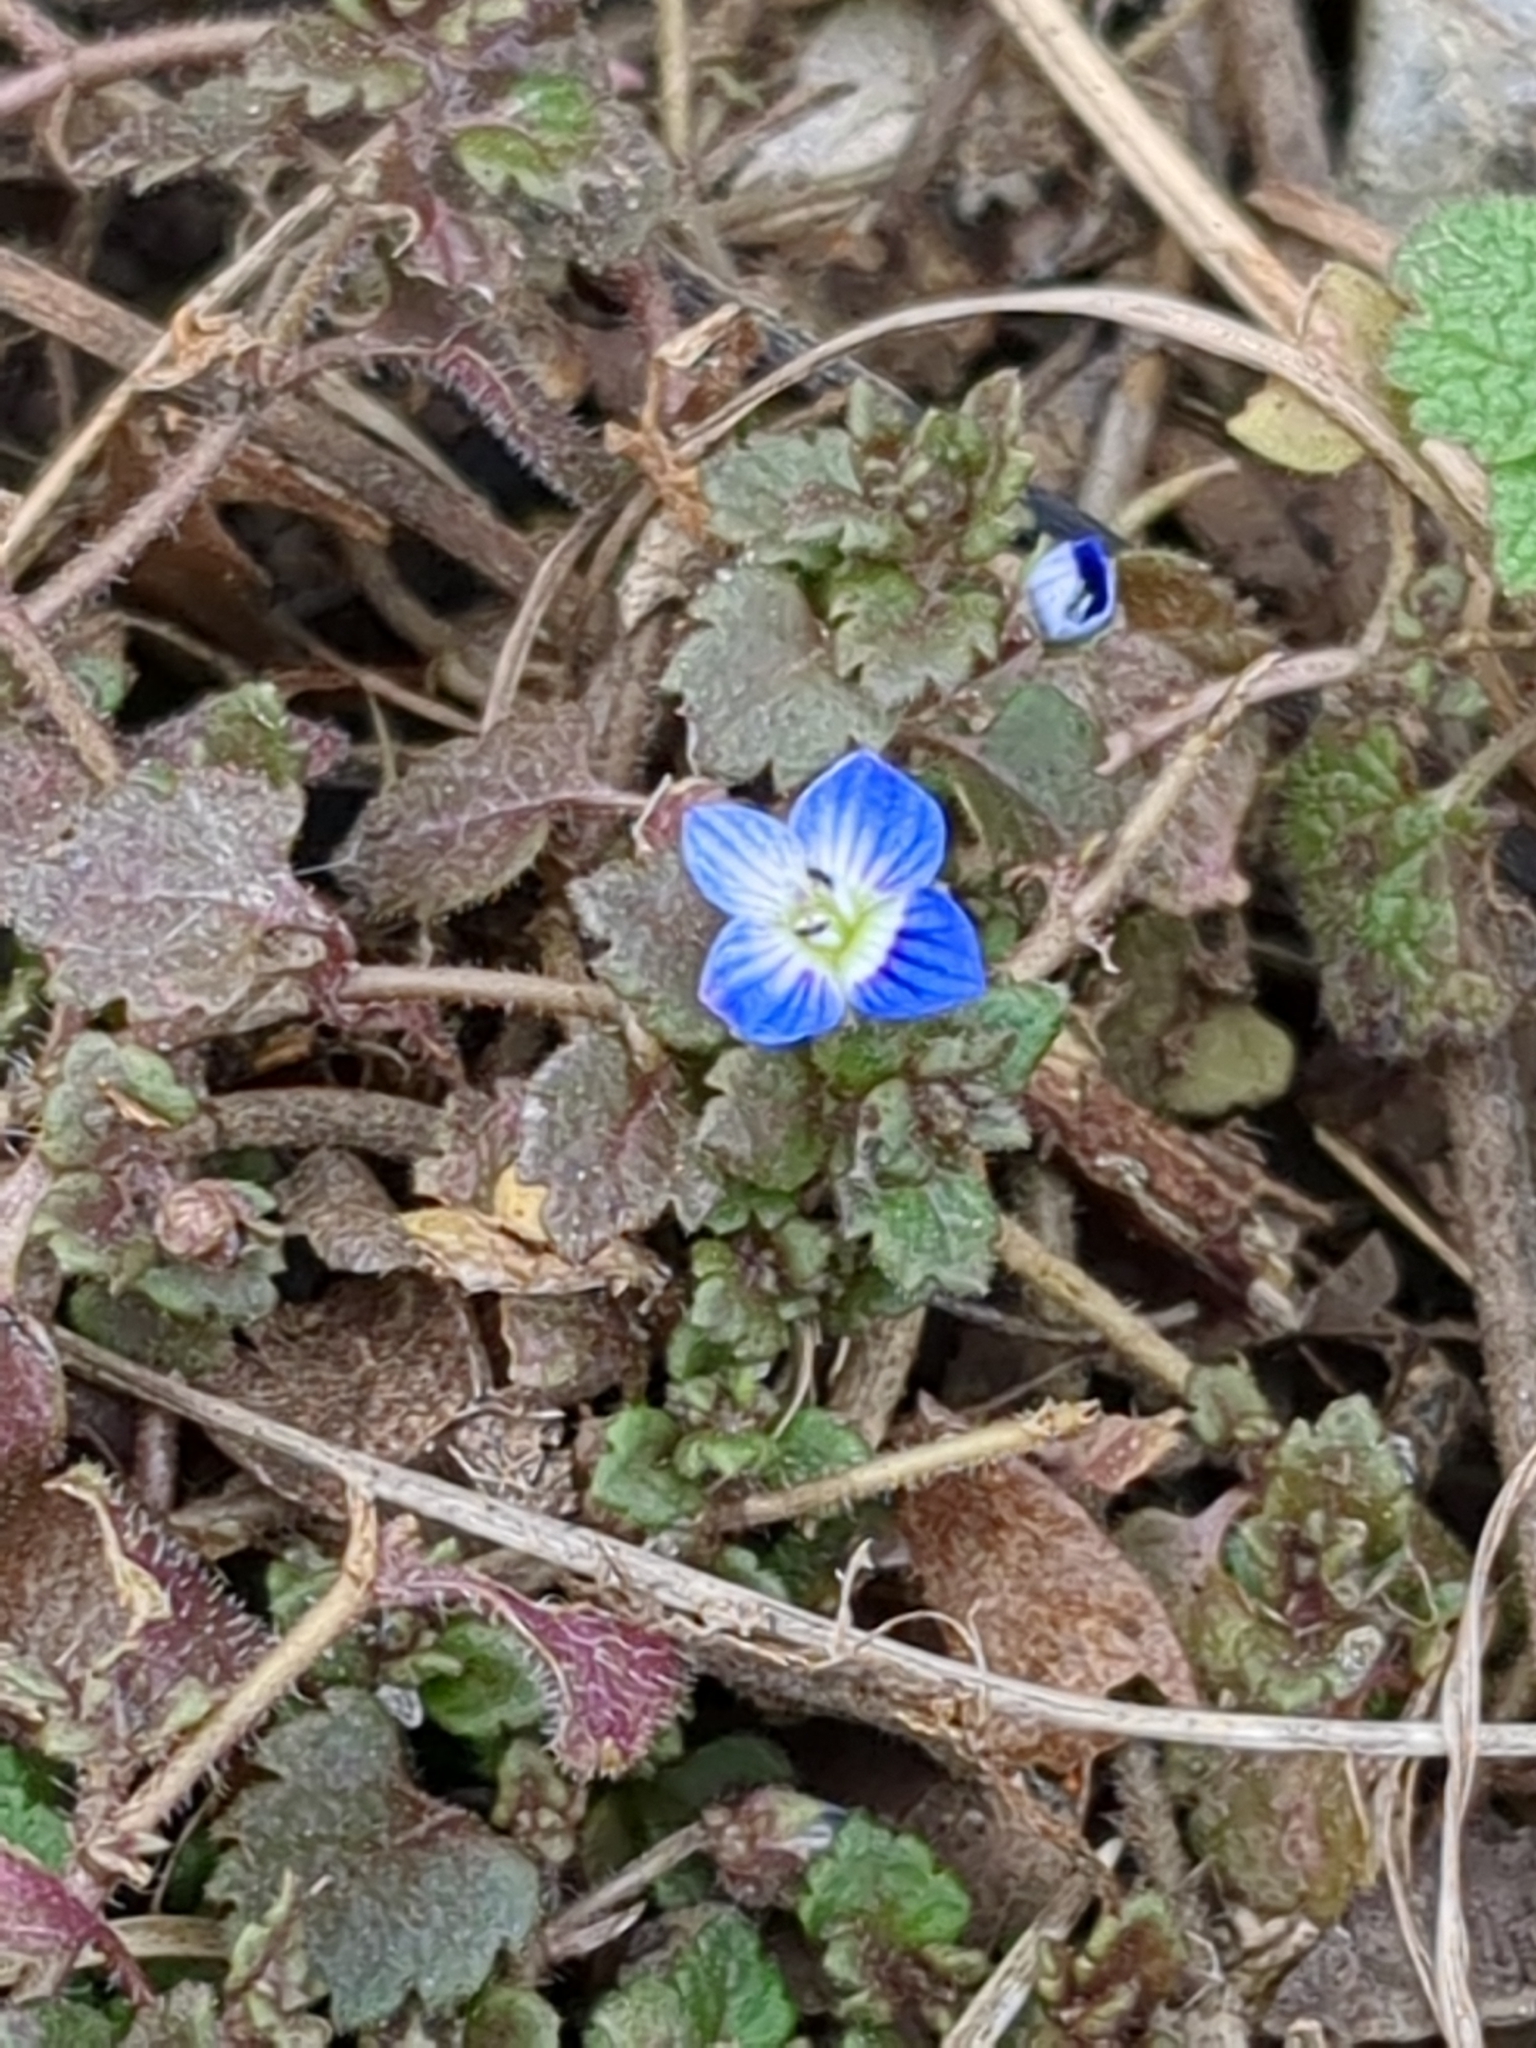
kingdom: Plantae
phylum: Tracheophyta
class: Magnoliopsida
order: Lamiales
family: Plantaginaceae
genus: Veronica
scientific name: Veronica polita
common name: Grey field-speedwell
